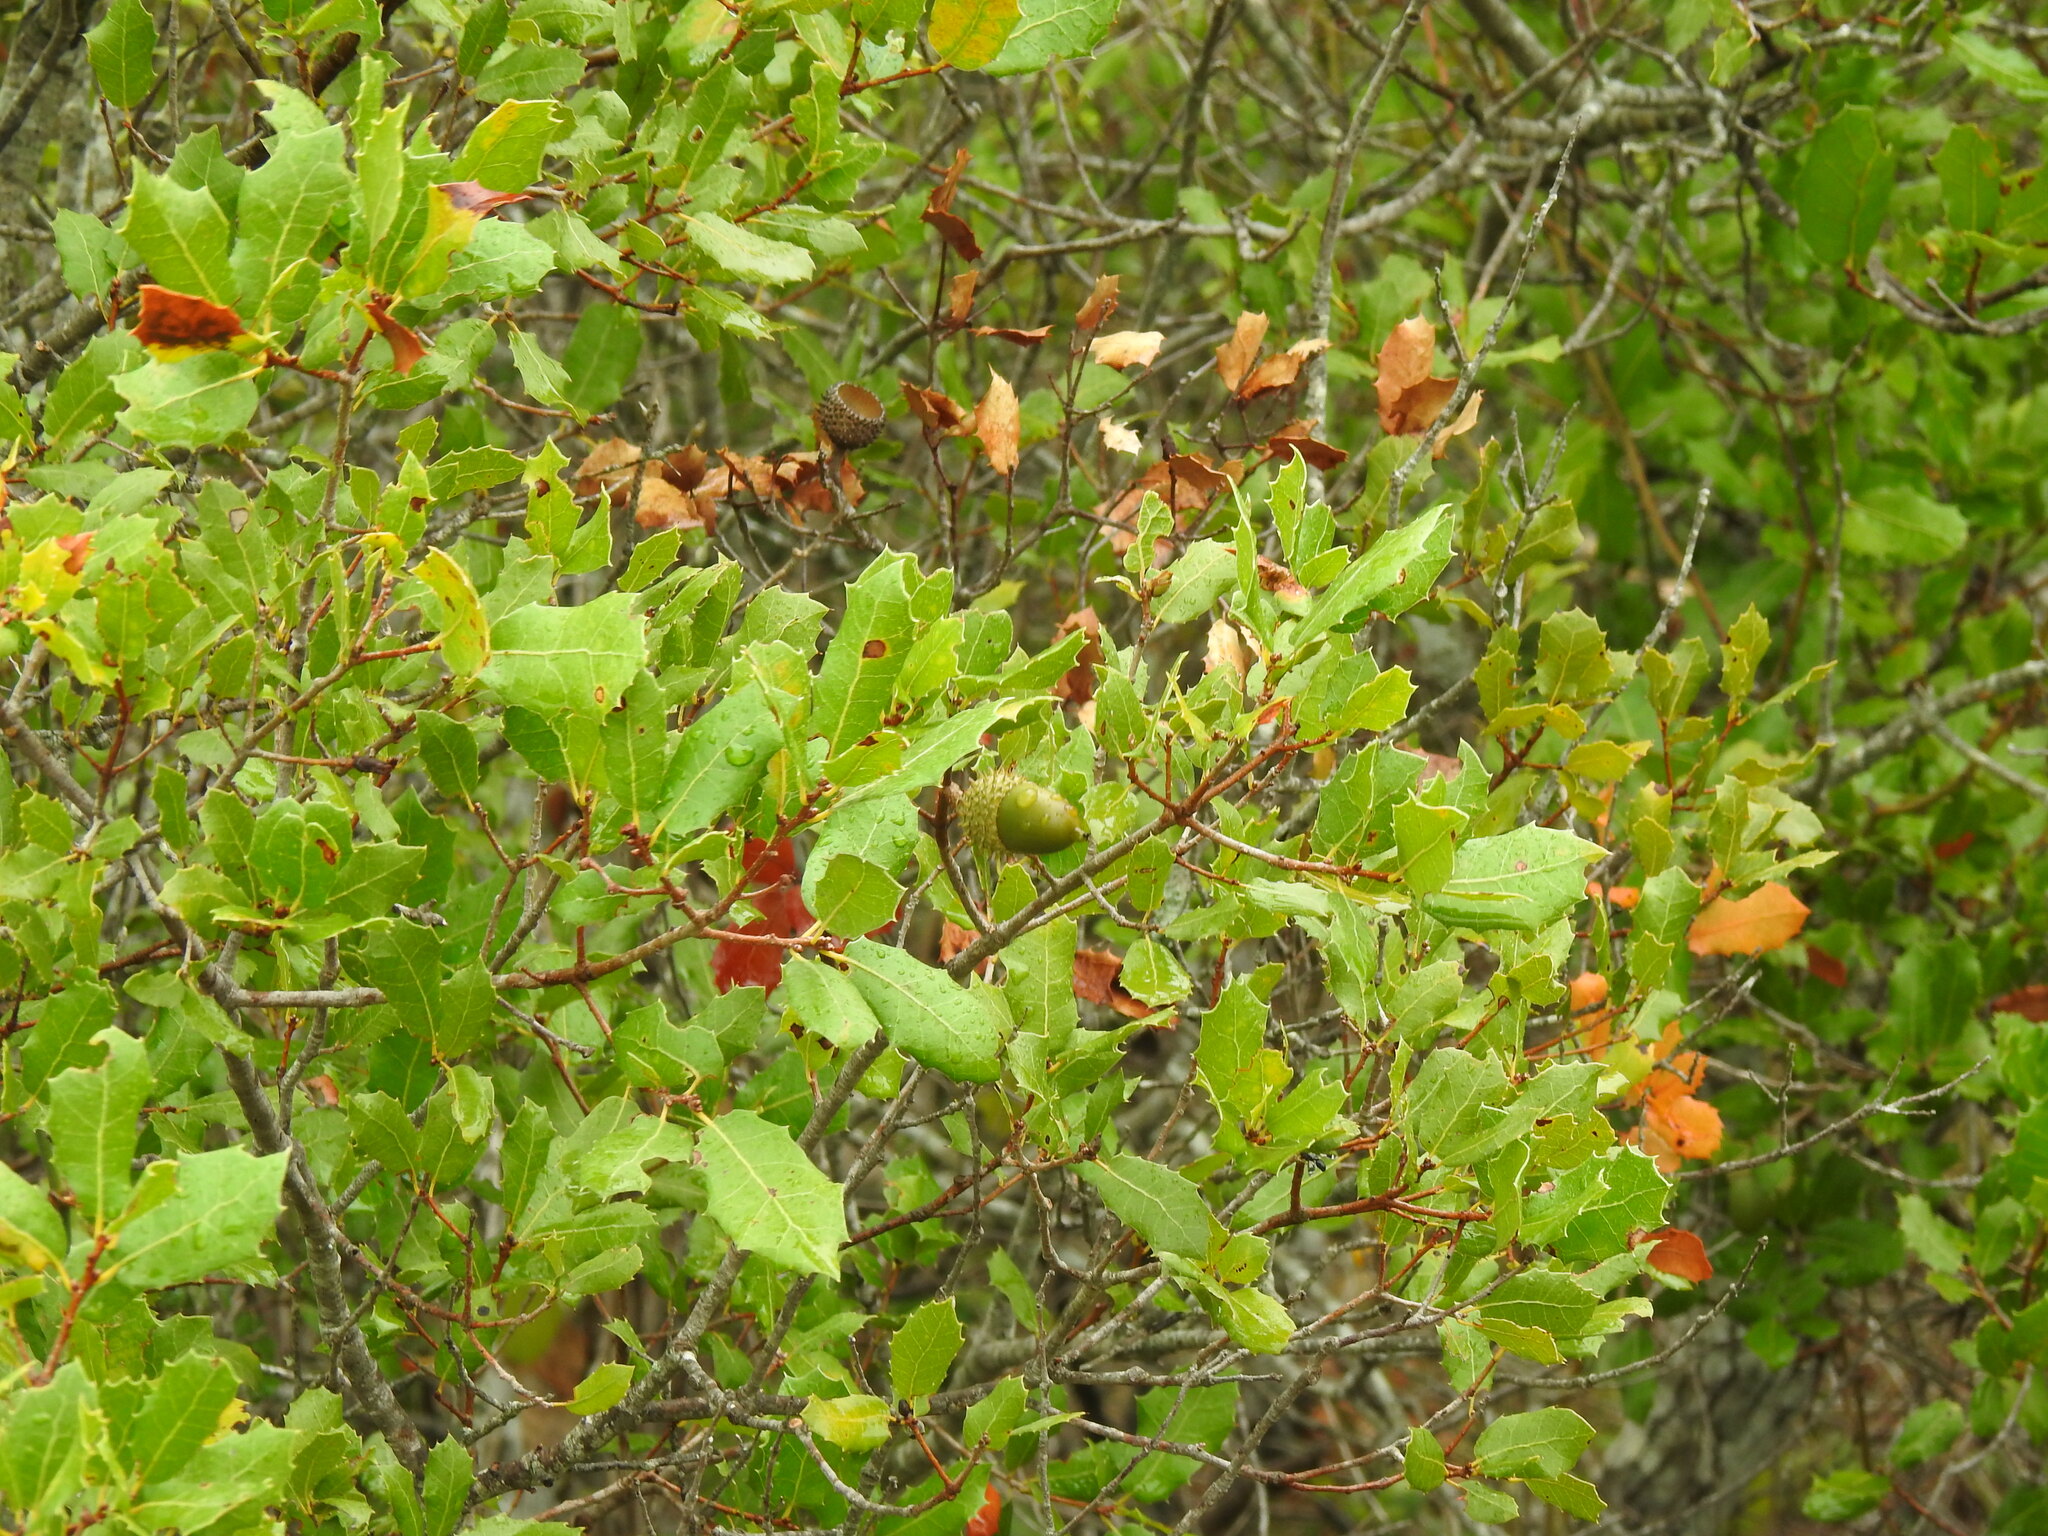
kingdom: Plantae
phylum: Tracheophyta
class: Magnoliopsida
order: Fagales
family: Fagaceae
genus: Quercus
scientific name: Quercus coccifera
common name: Kermes oak
